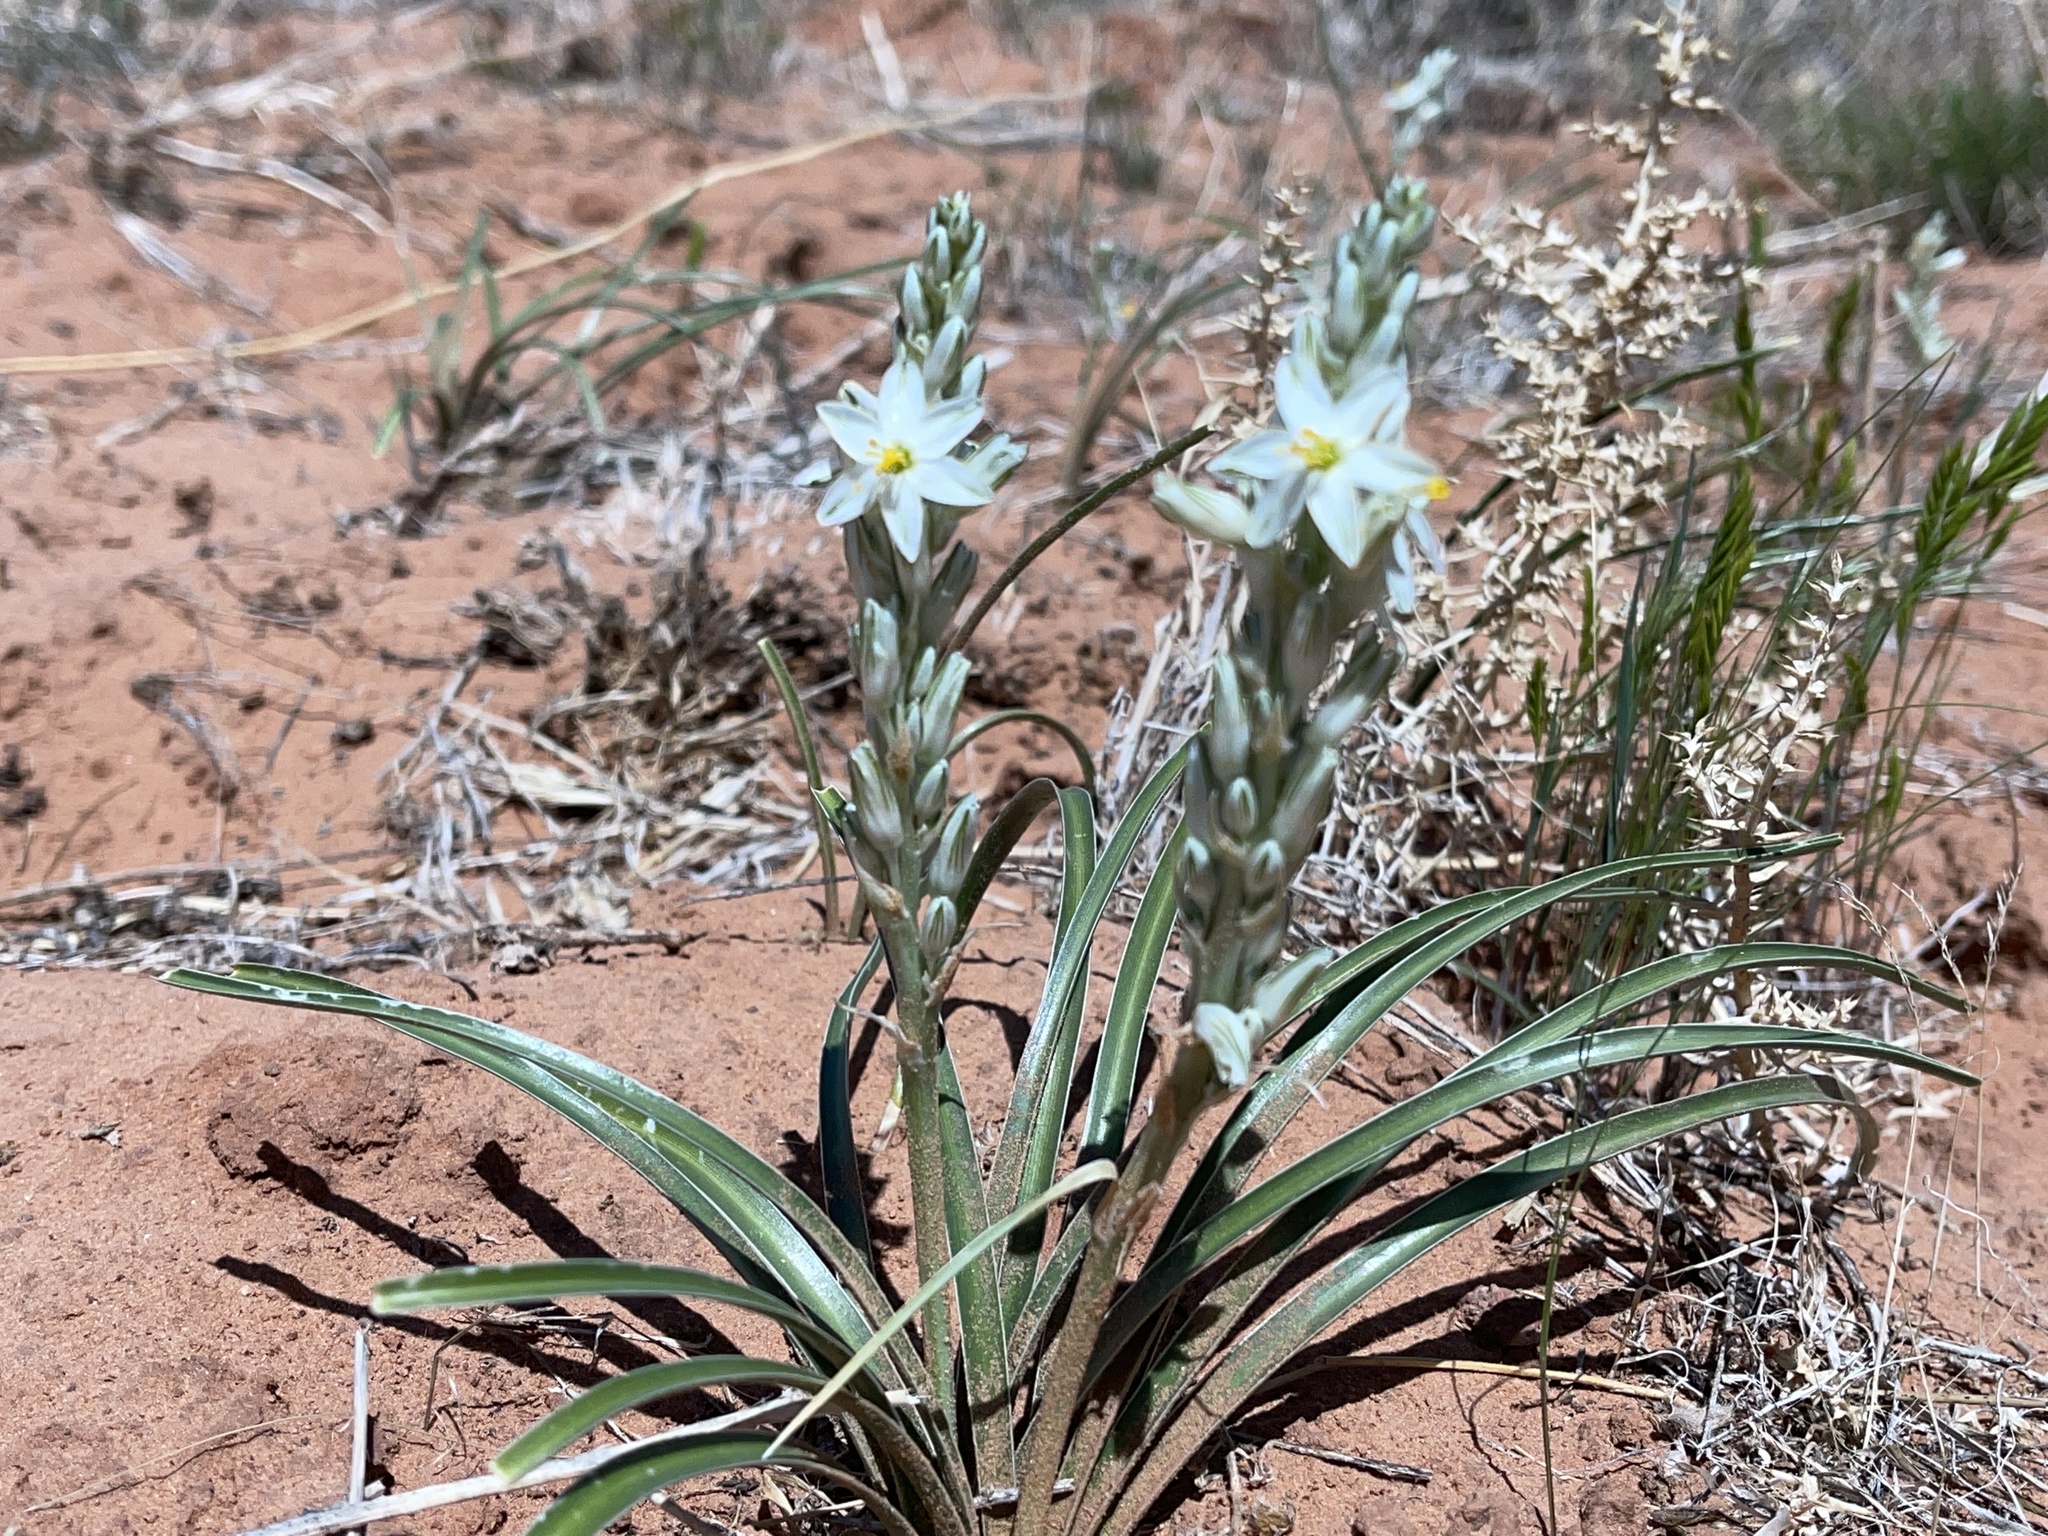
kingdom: Plantae
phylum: Tracheophyta
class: Liliopsida
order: Asparagales
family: Asparagaceae
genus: Eremocrinum
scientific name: Eremocrinum albomarginatum
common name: Sand-lily
